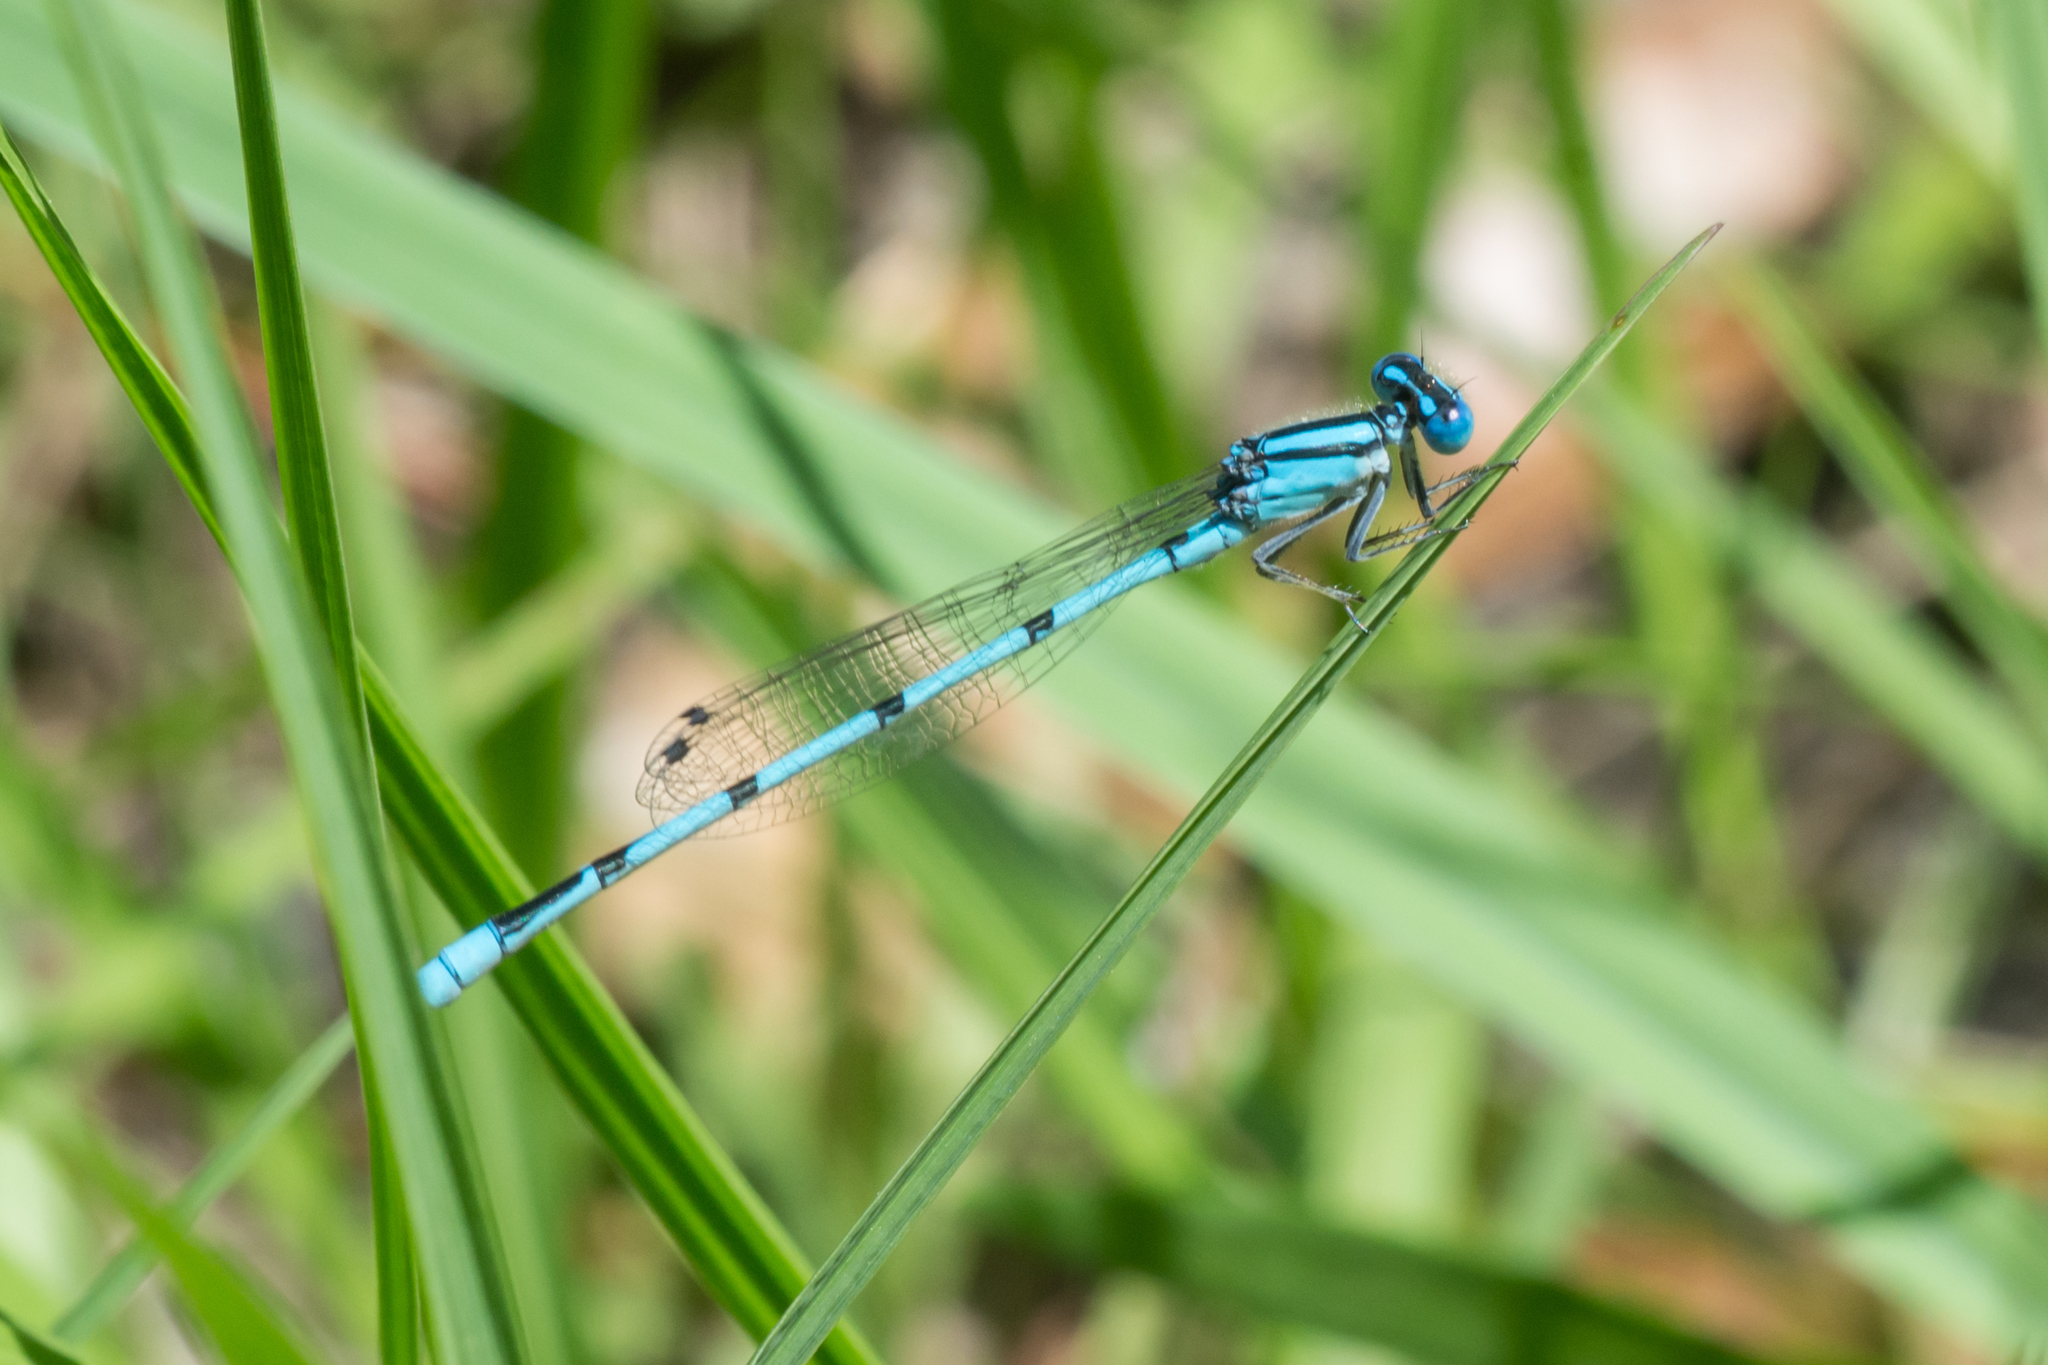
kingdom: Animalia
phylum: Arthropoda
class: Insecta
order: Odonata
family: Coenagrionidae
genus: Enallagma
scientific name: Enallagma doubledayi
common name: Atlantic bluet
